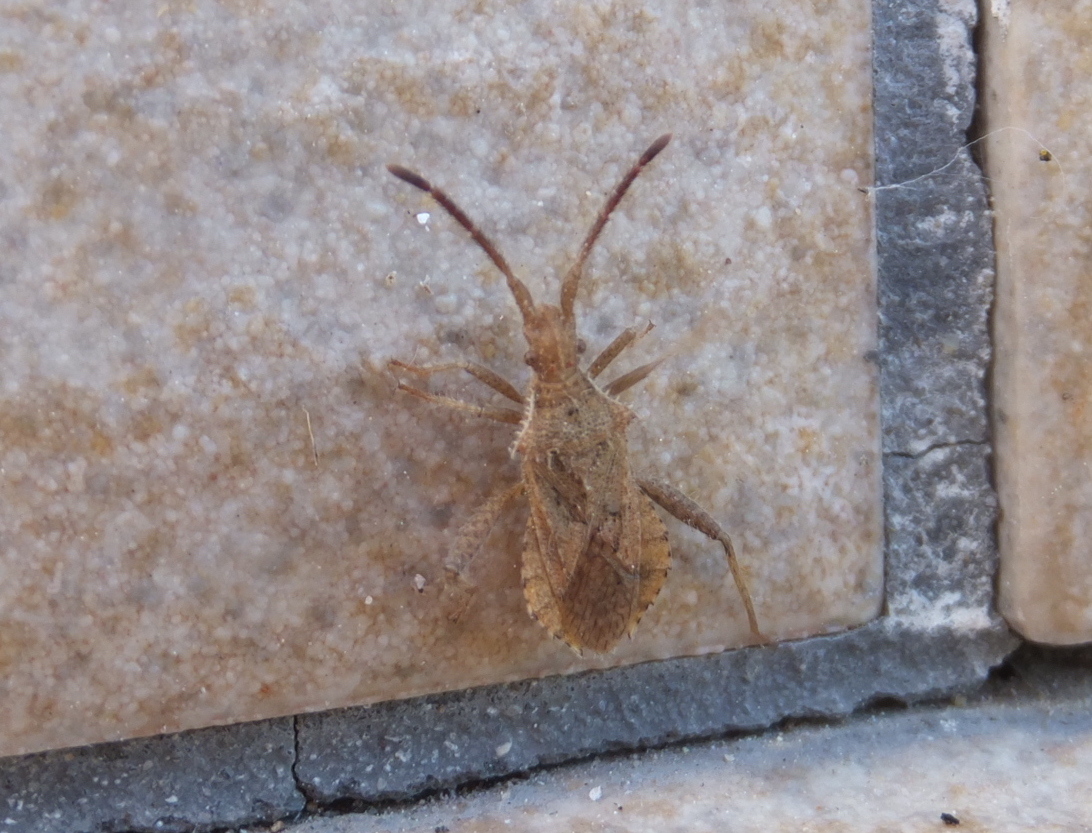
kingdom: Animalia
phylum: Arthropoda
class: Insecta
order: Hemiptera
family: Coreidae
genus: Coriomeris
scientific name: Coriomeris hirticornis
